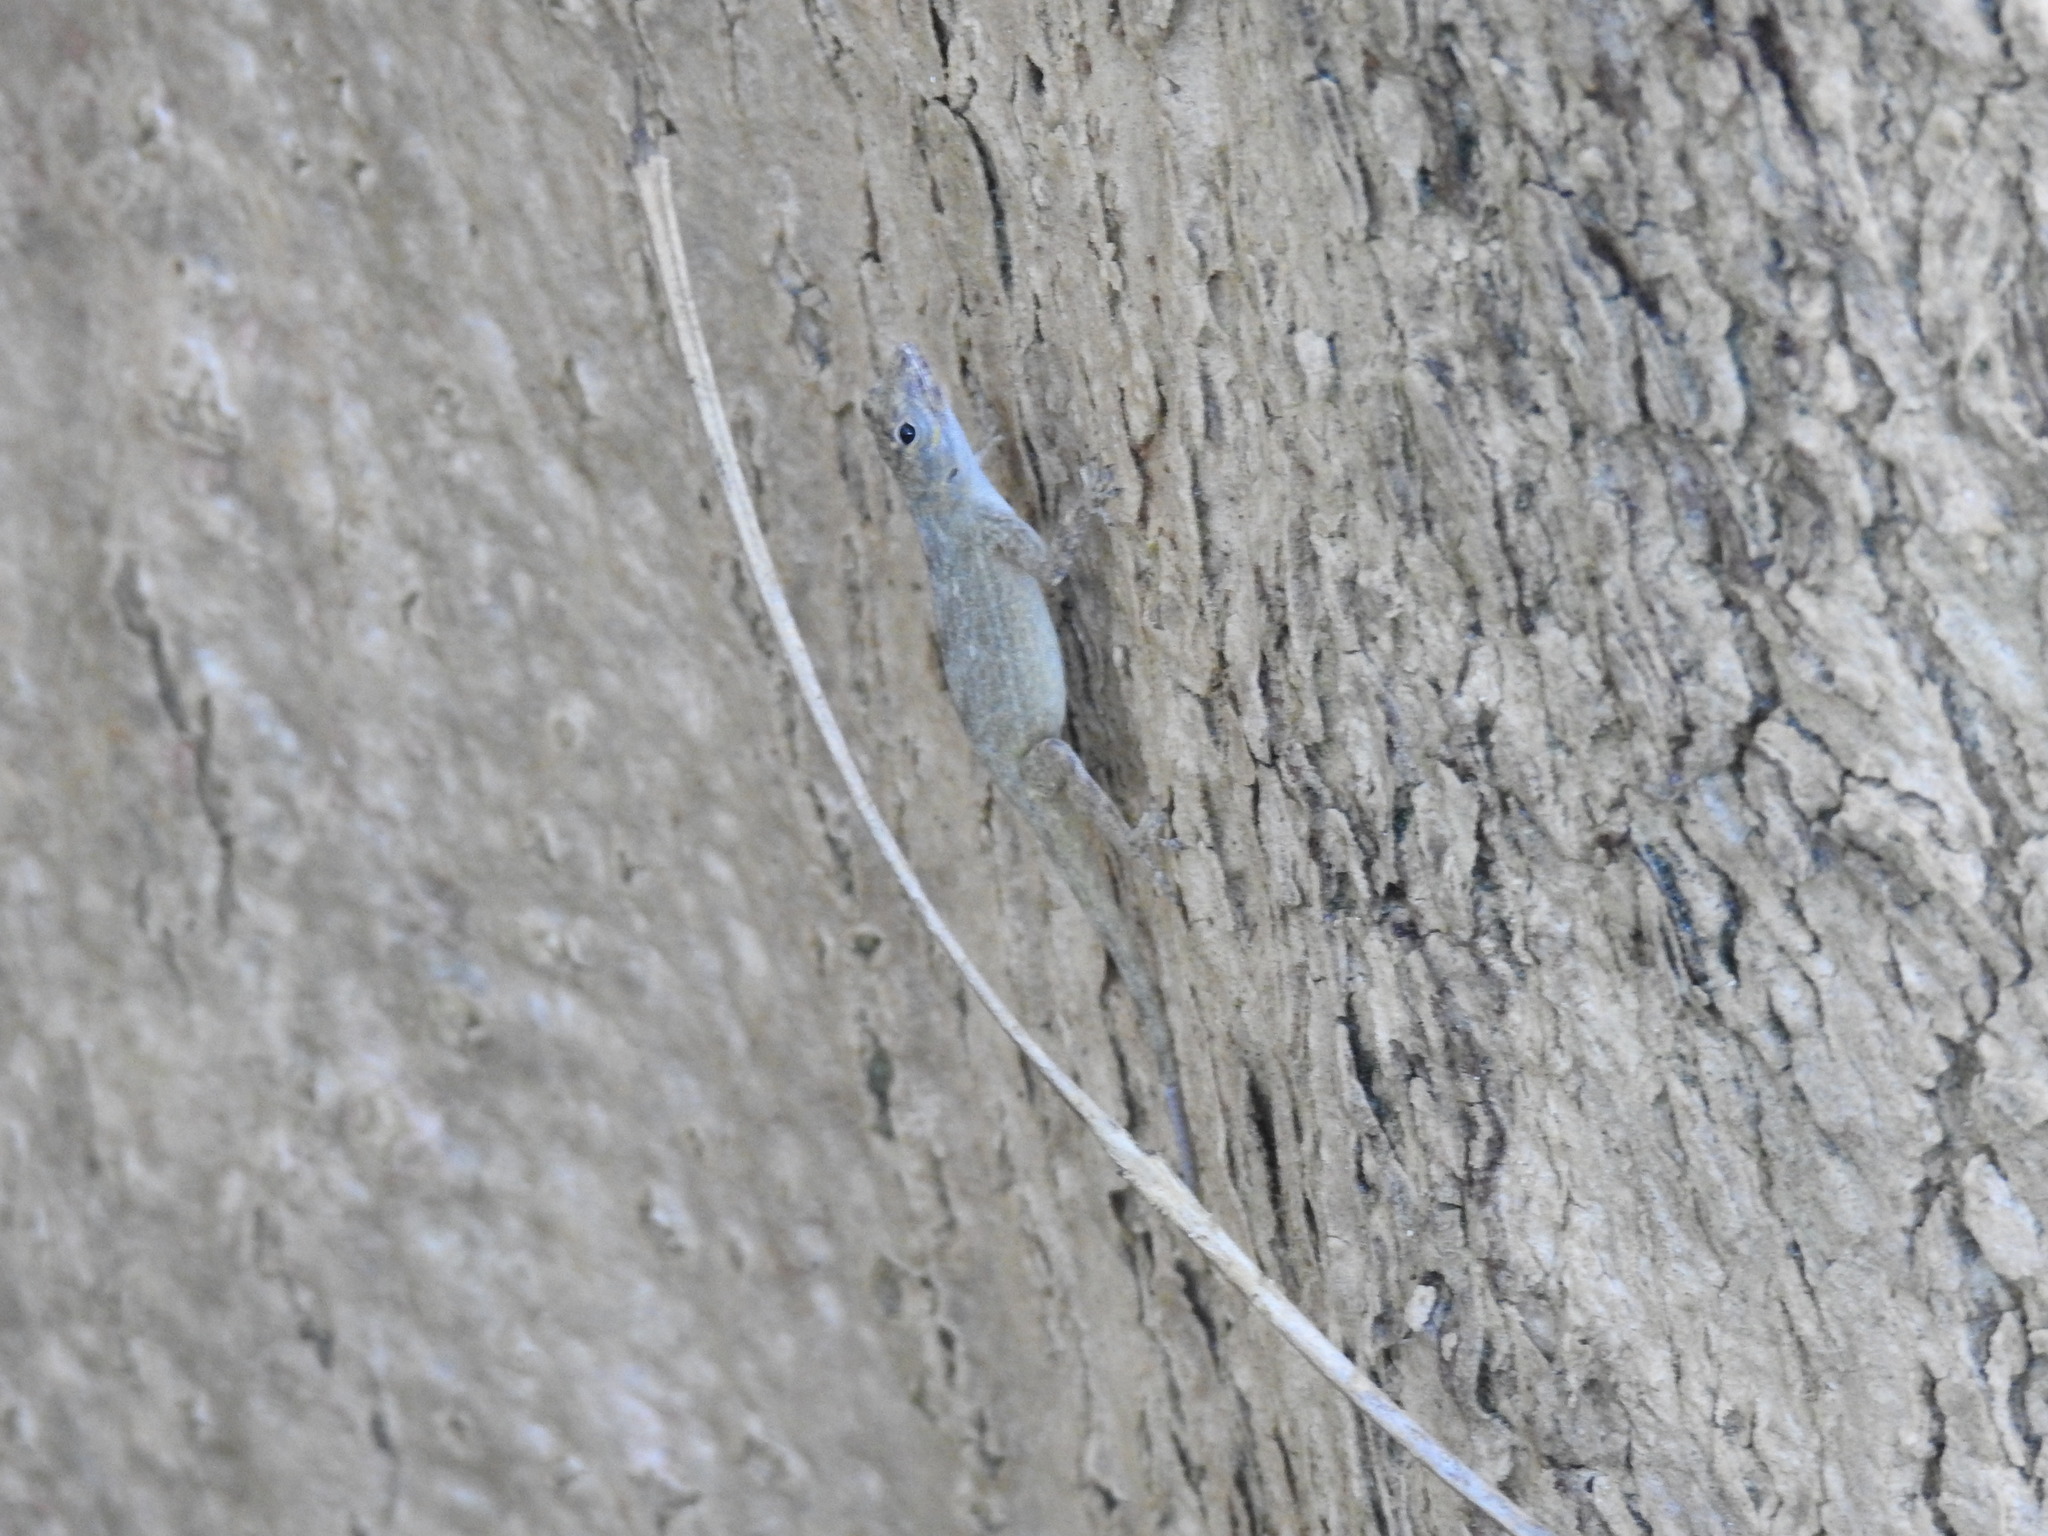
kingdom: Animalia
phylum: Chordata
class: Squamata
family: Dactyloidae
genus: Anolis
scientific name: Anolis distichus
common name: Bark anole
